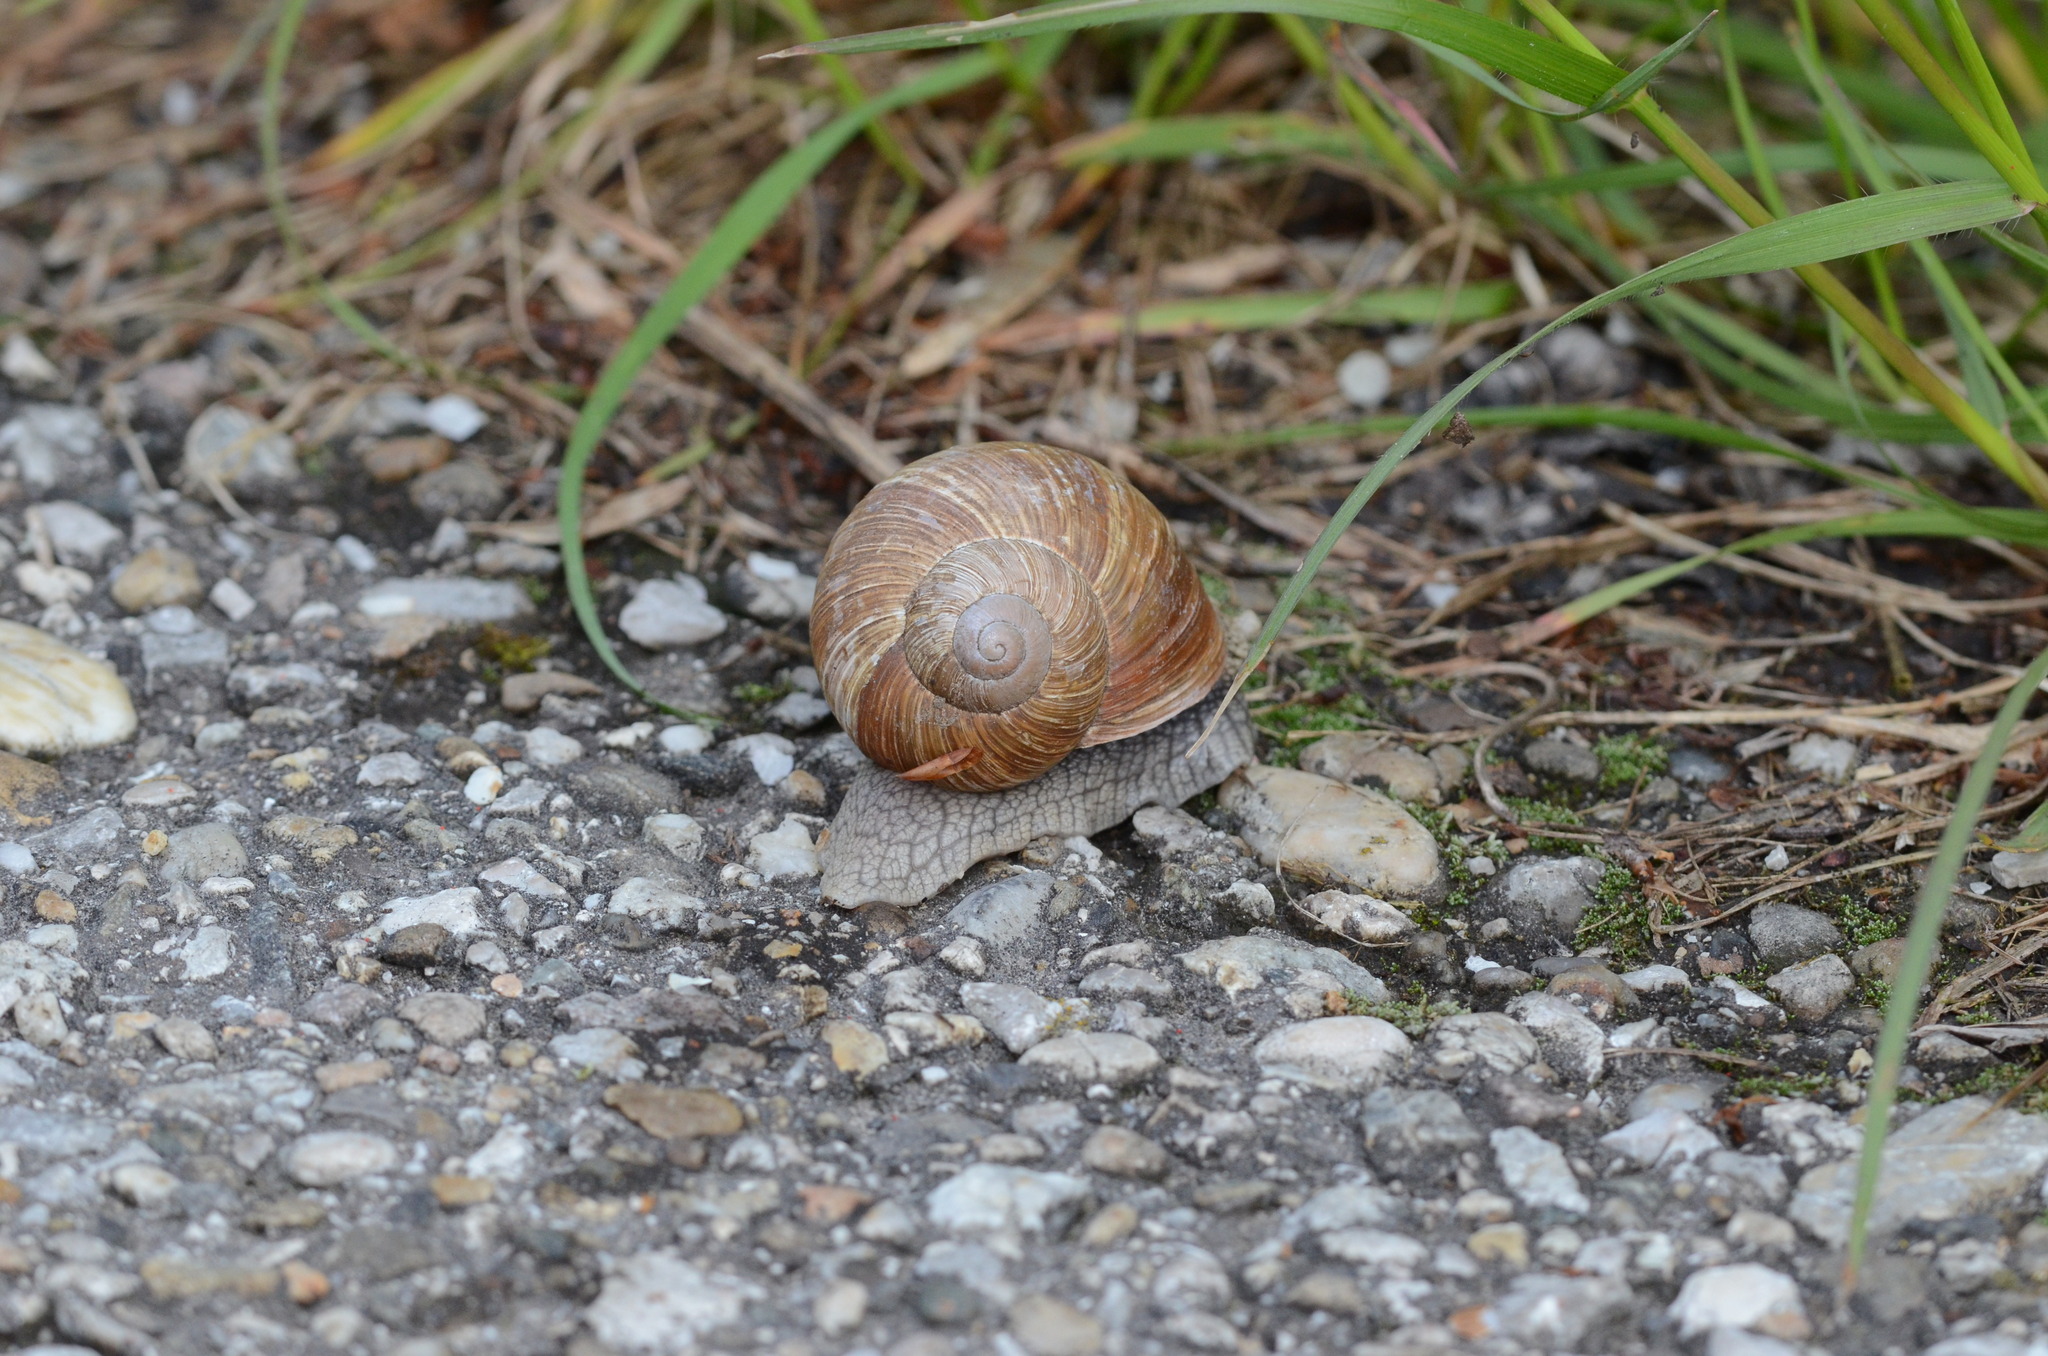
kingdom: Animalia
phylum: Mollusca
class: Gastropoda
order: Stylommatophora
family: Helicidae
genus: Helix
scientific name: Helix pomatia
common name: Roman snail
